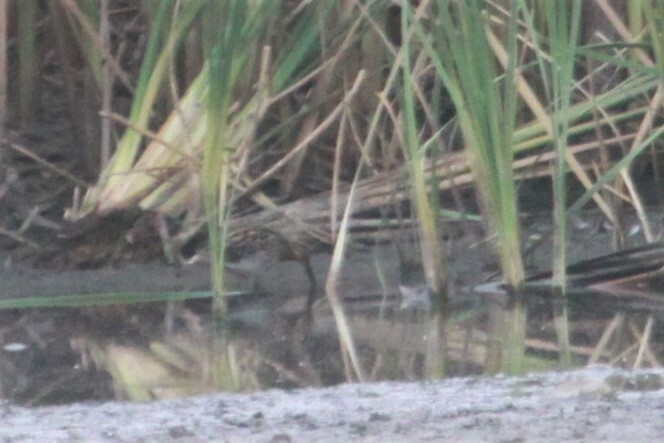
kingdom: Animalia
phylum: Chordata
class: Aves
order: Charadriiformes
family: Scolopacidae
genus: Gallinago
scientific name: Gallinago nigripennis
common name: African snipe
